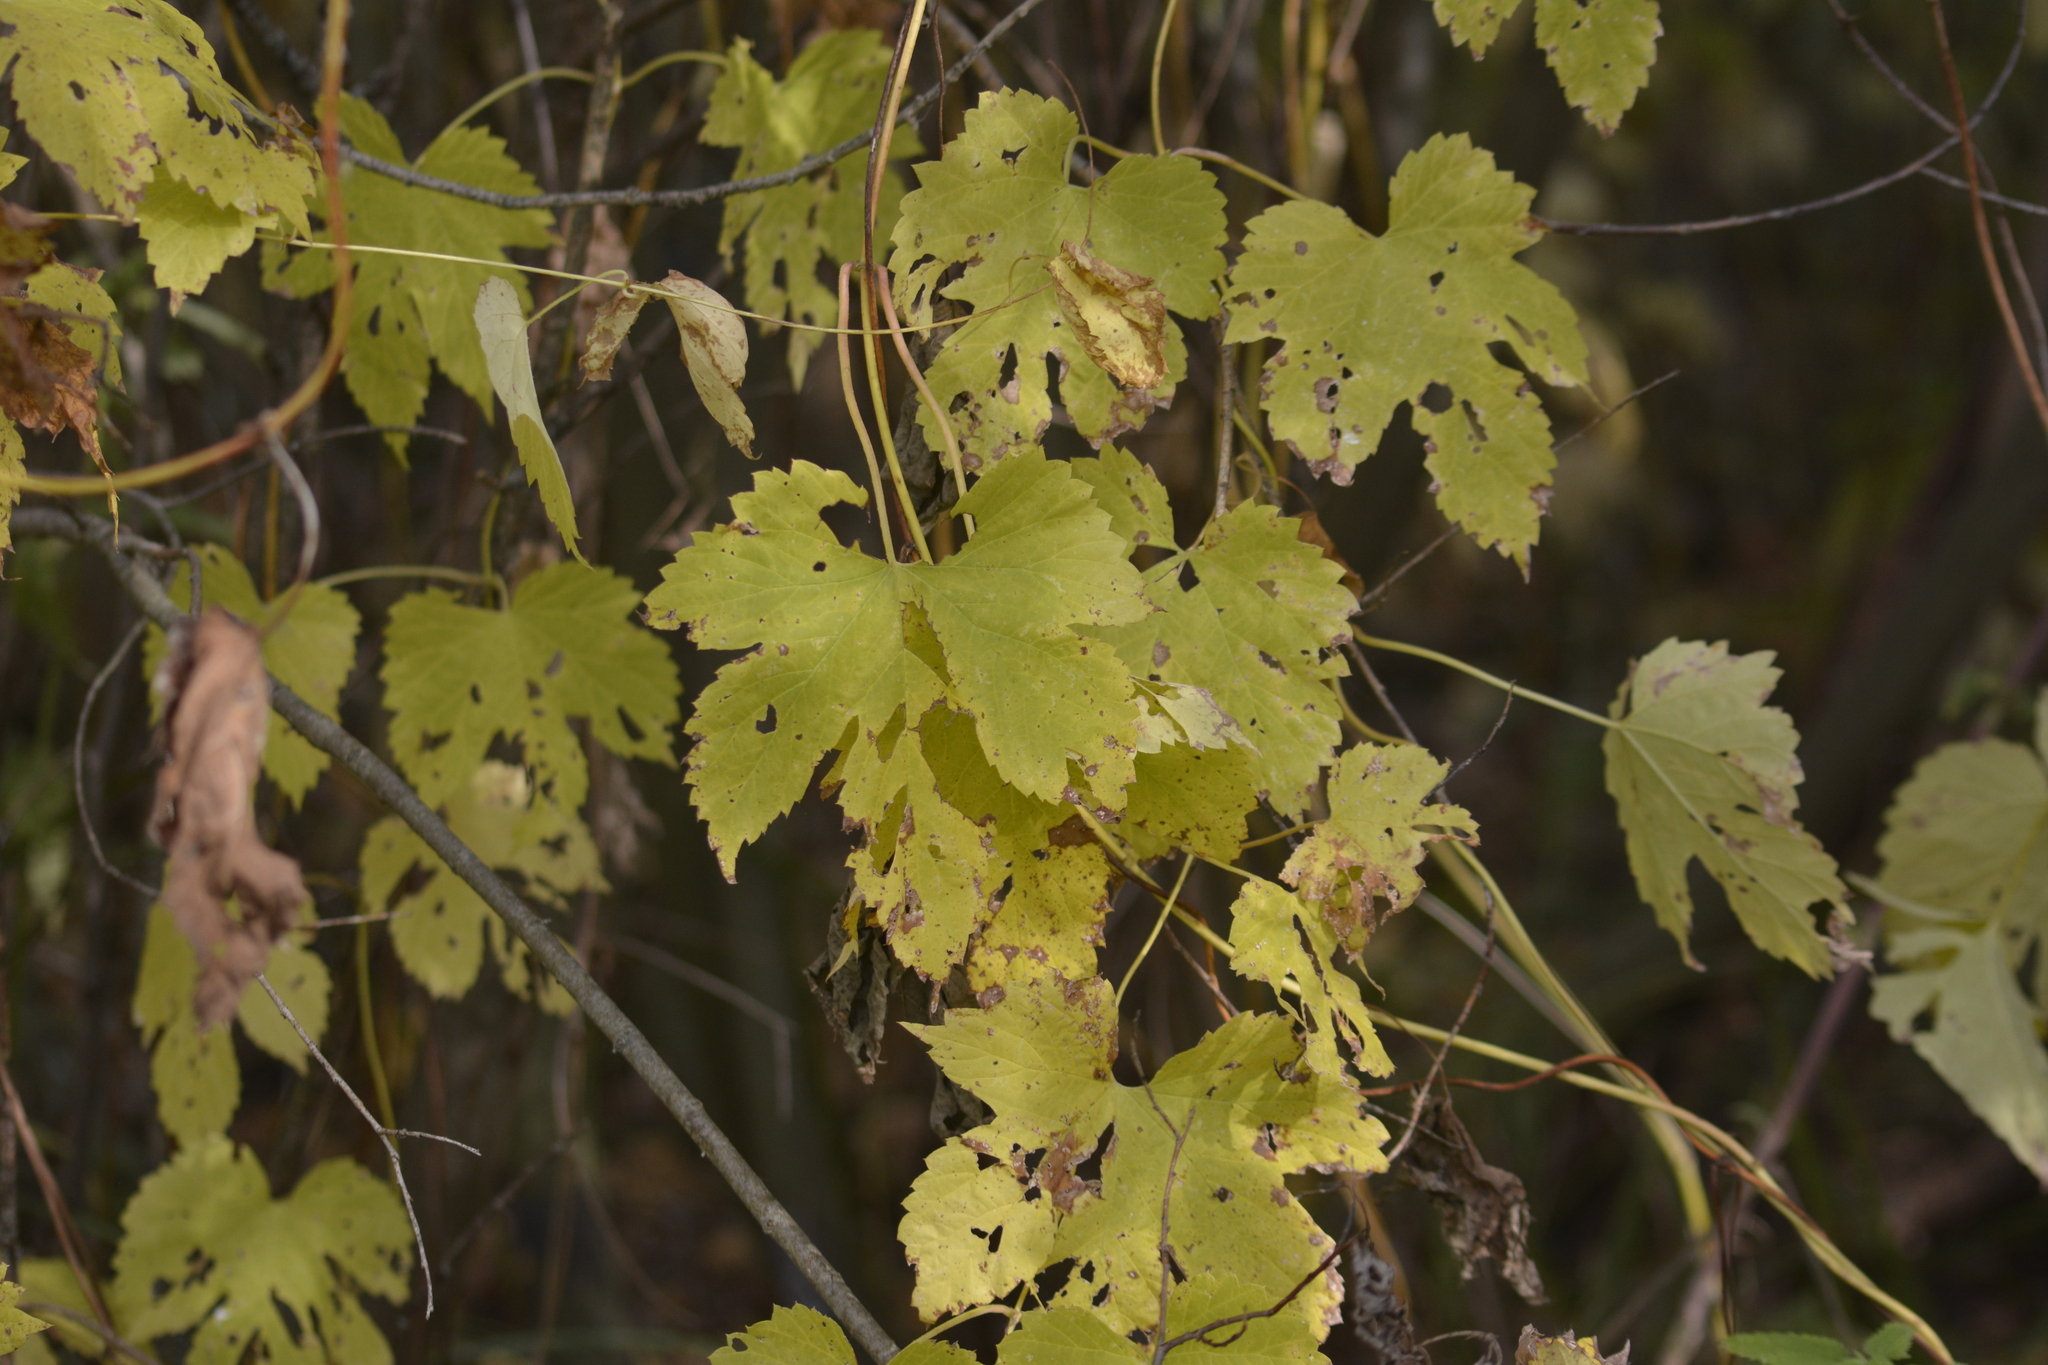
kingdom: Plantae
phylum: Tracheophyta
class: Magnoliopsida
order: Rosales
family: Cannabaceae
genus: Humulus
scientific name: Humulus lupulus
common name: Hop
